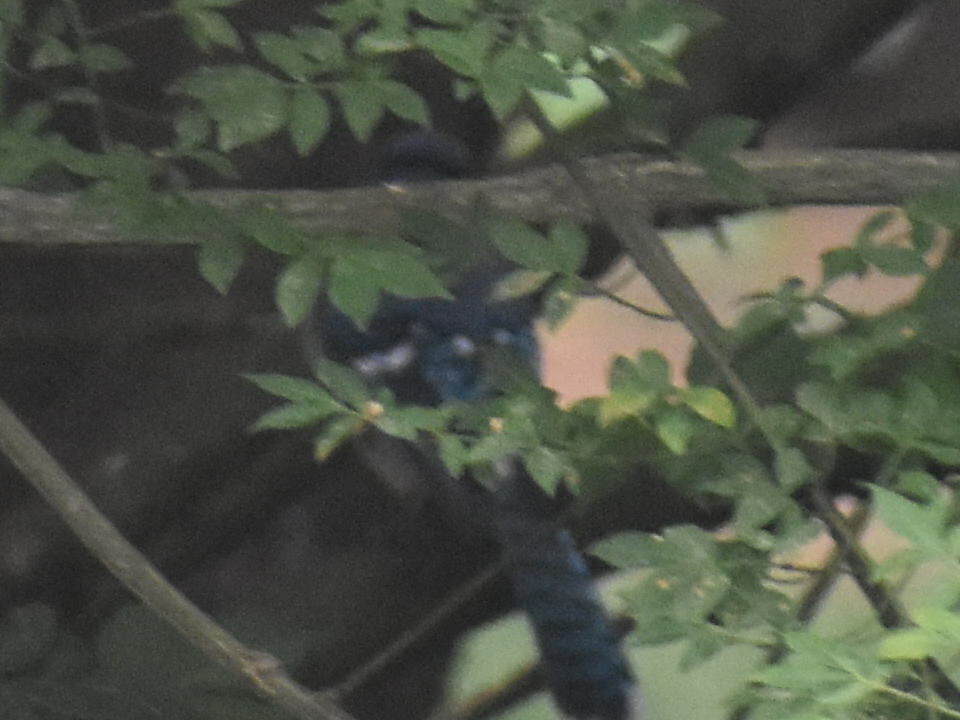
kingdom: Animalia
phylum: Chordata
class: Aves
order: Passeriformes
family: Corvidae
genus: Cyanocitta
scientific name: Cyanocitta cristata
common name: Blue jay
